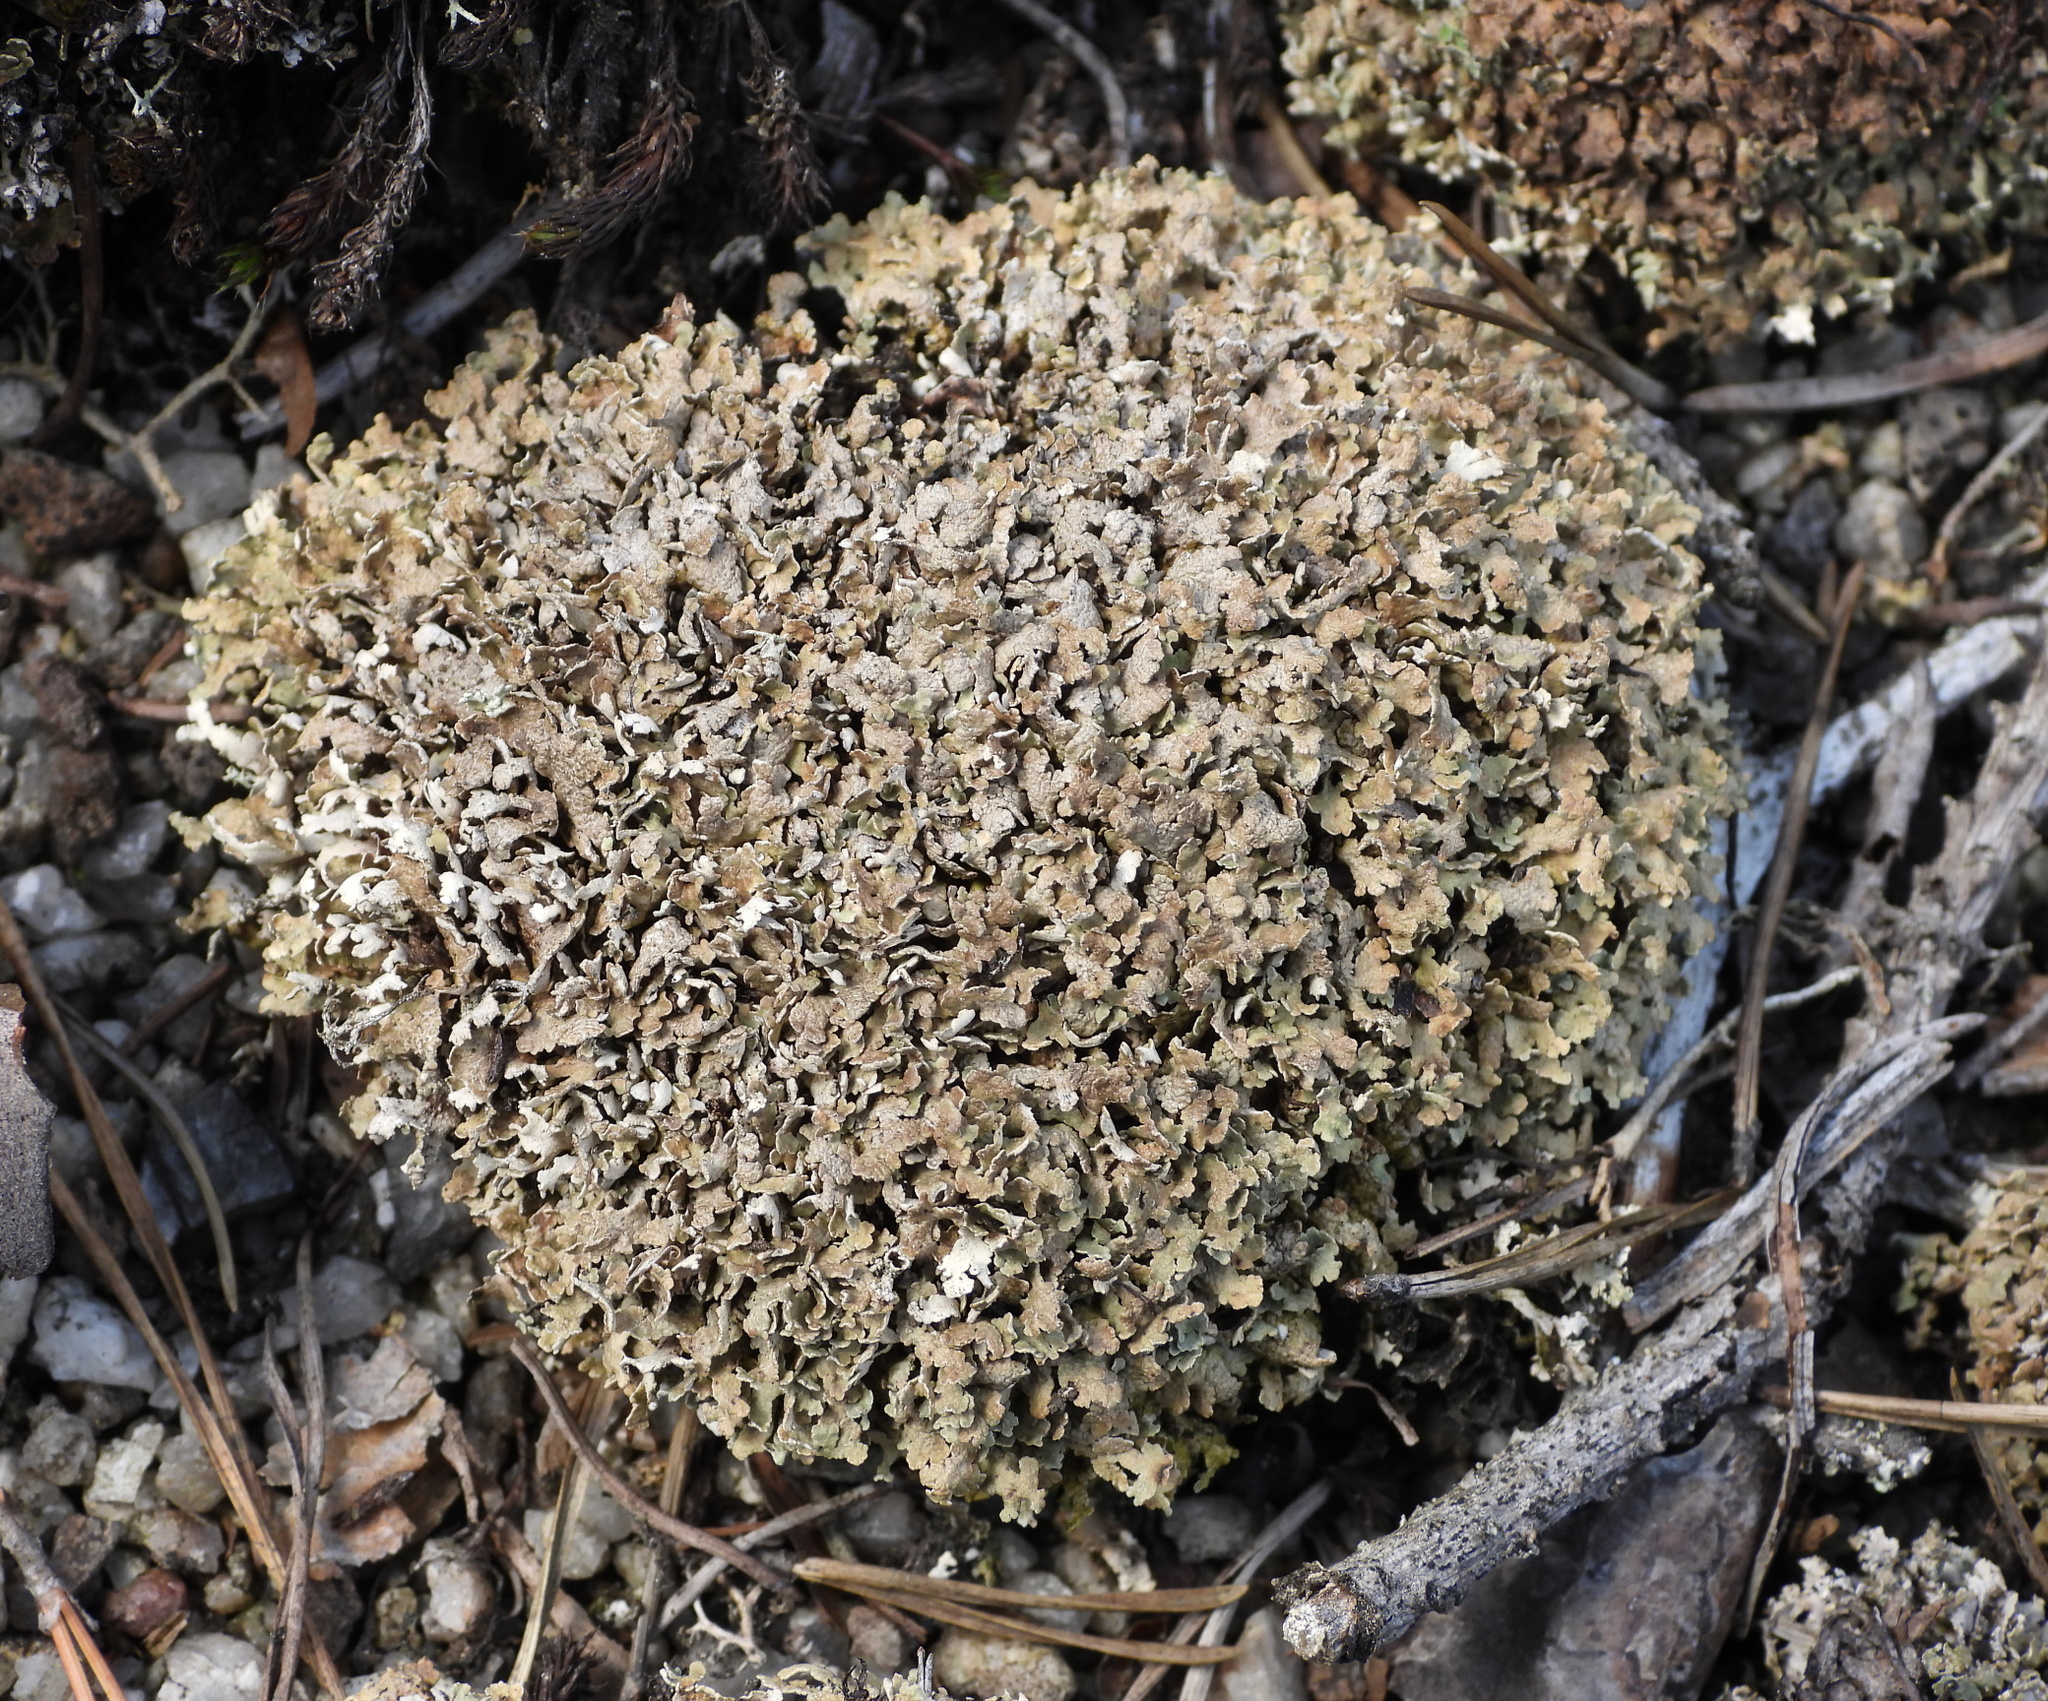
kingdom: Fungi
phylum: Ascomycota
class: Lecanoromycetes
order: Lecanorales
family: Cladoniaceae
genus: Cladonia
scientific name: Cladonia strepsilis
